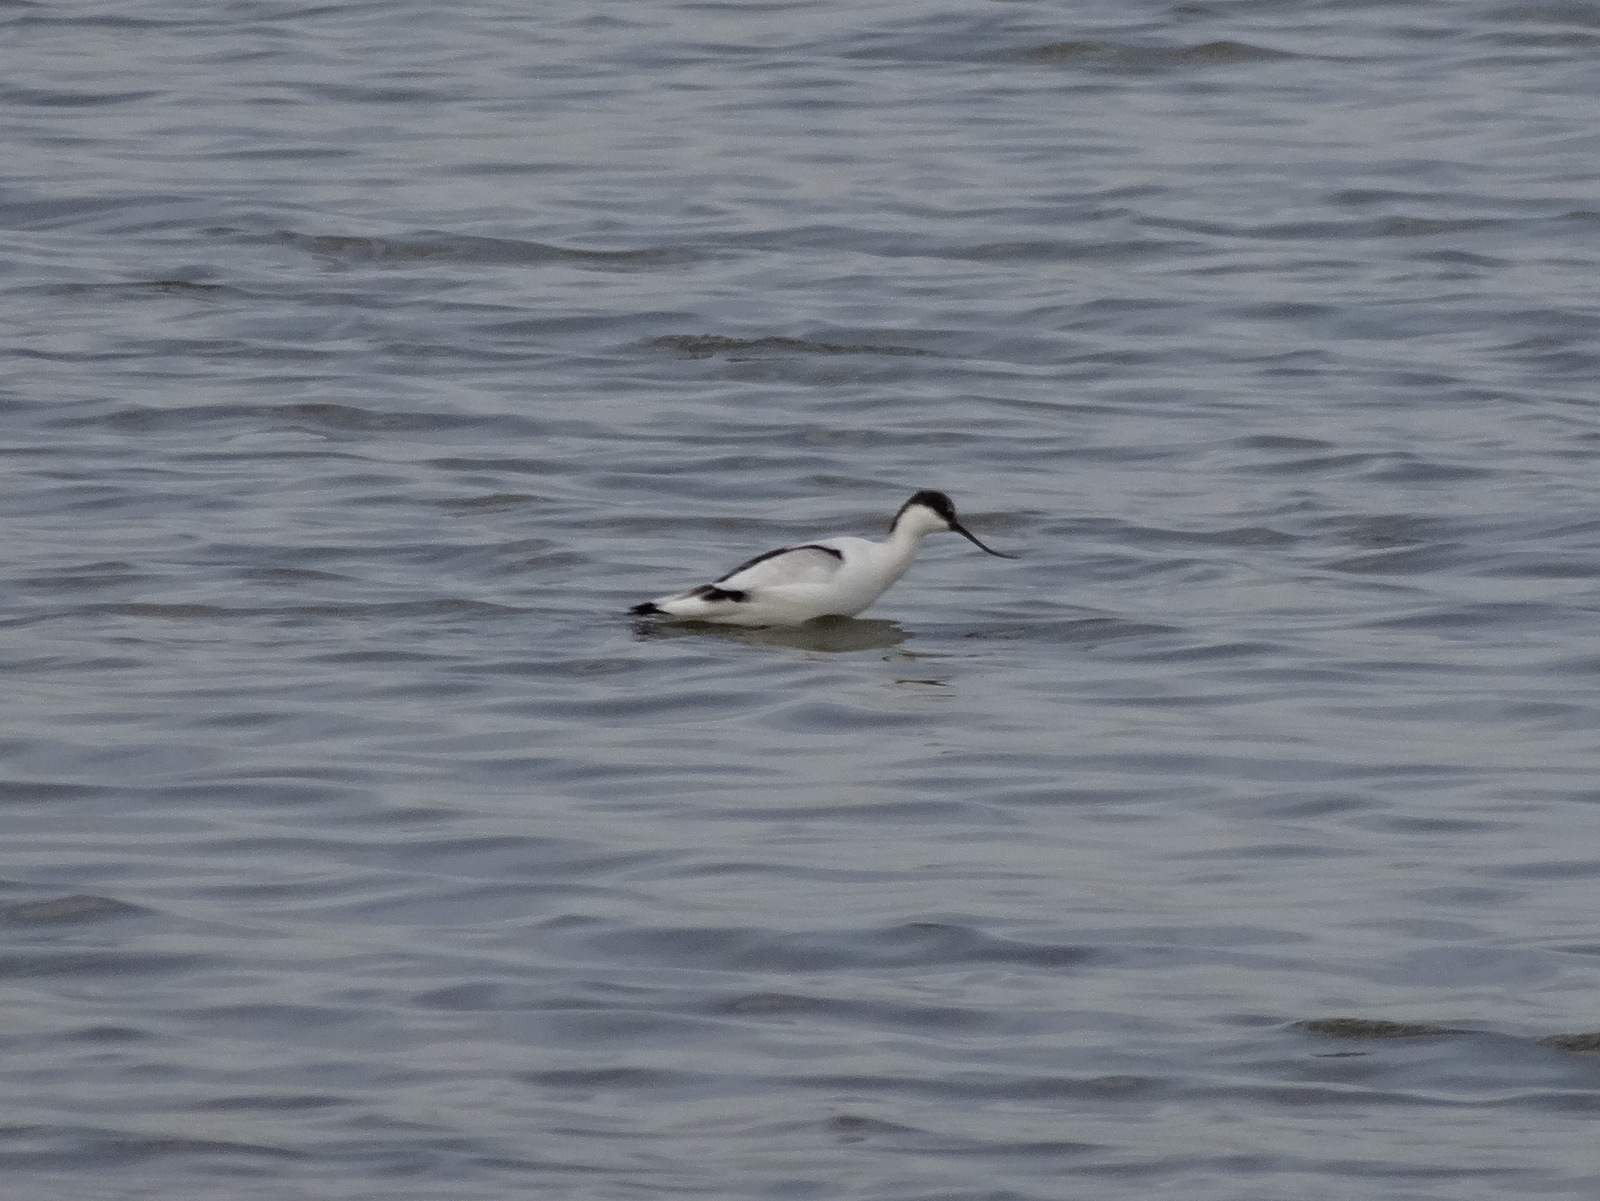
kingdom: Animalia
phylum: Chordata
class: Aves
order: Charadriiformes
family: Recurvirostridae
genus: Recurvirostra
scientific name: Recurvirostra avosetta
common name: Pied avocet
